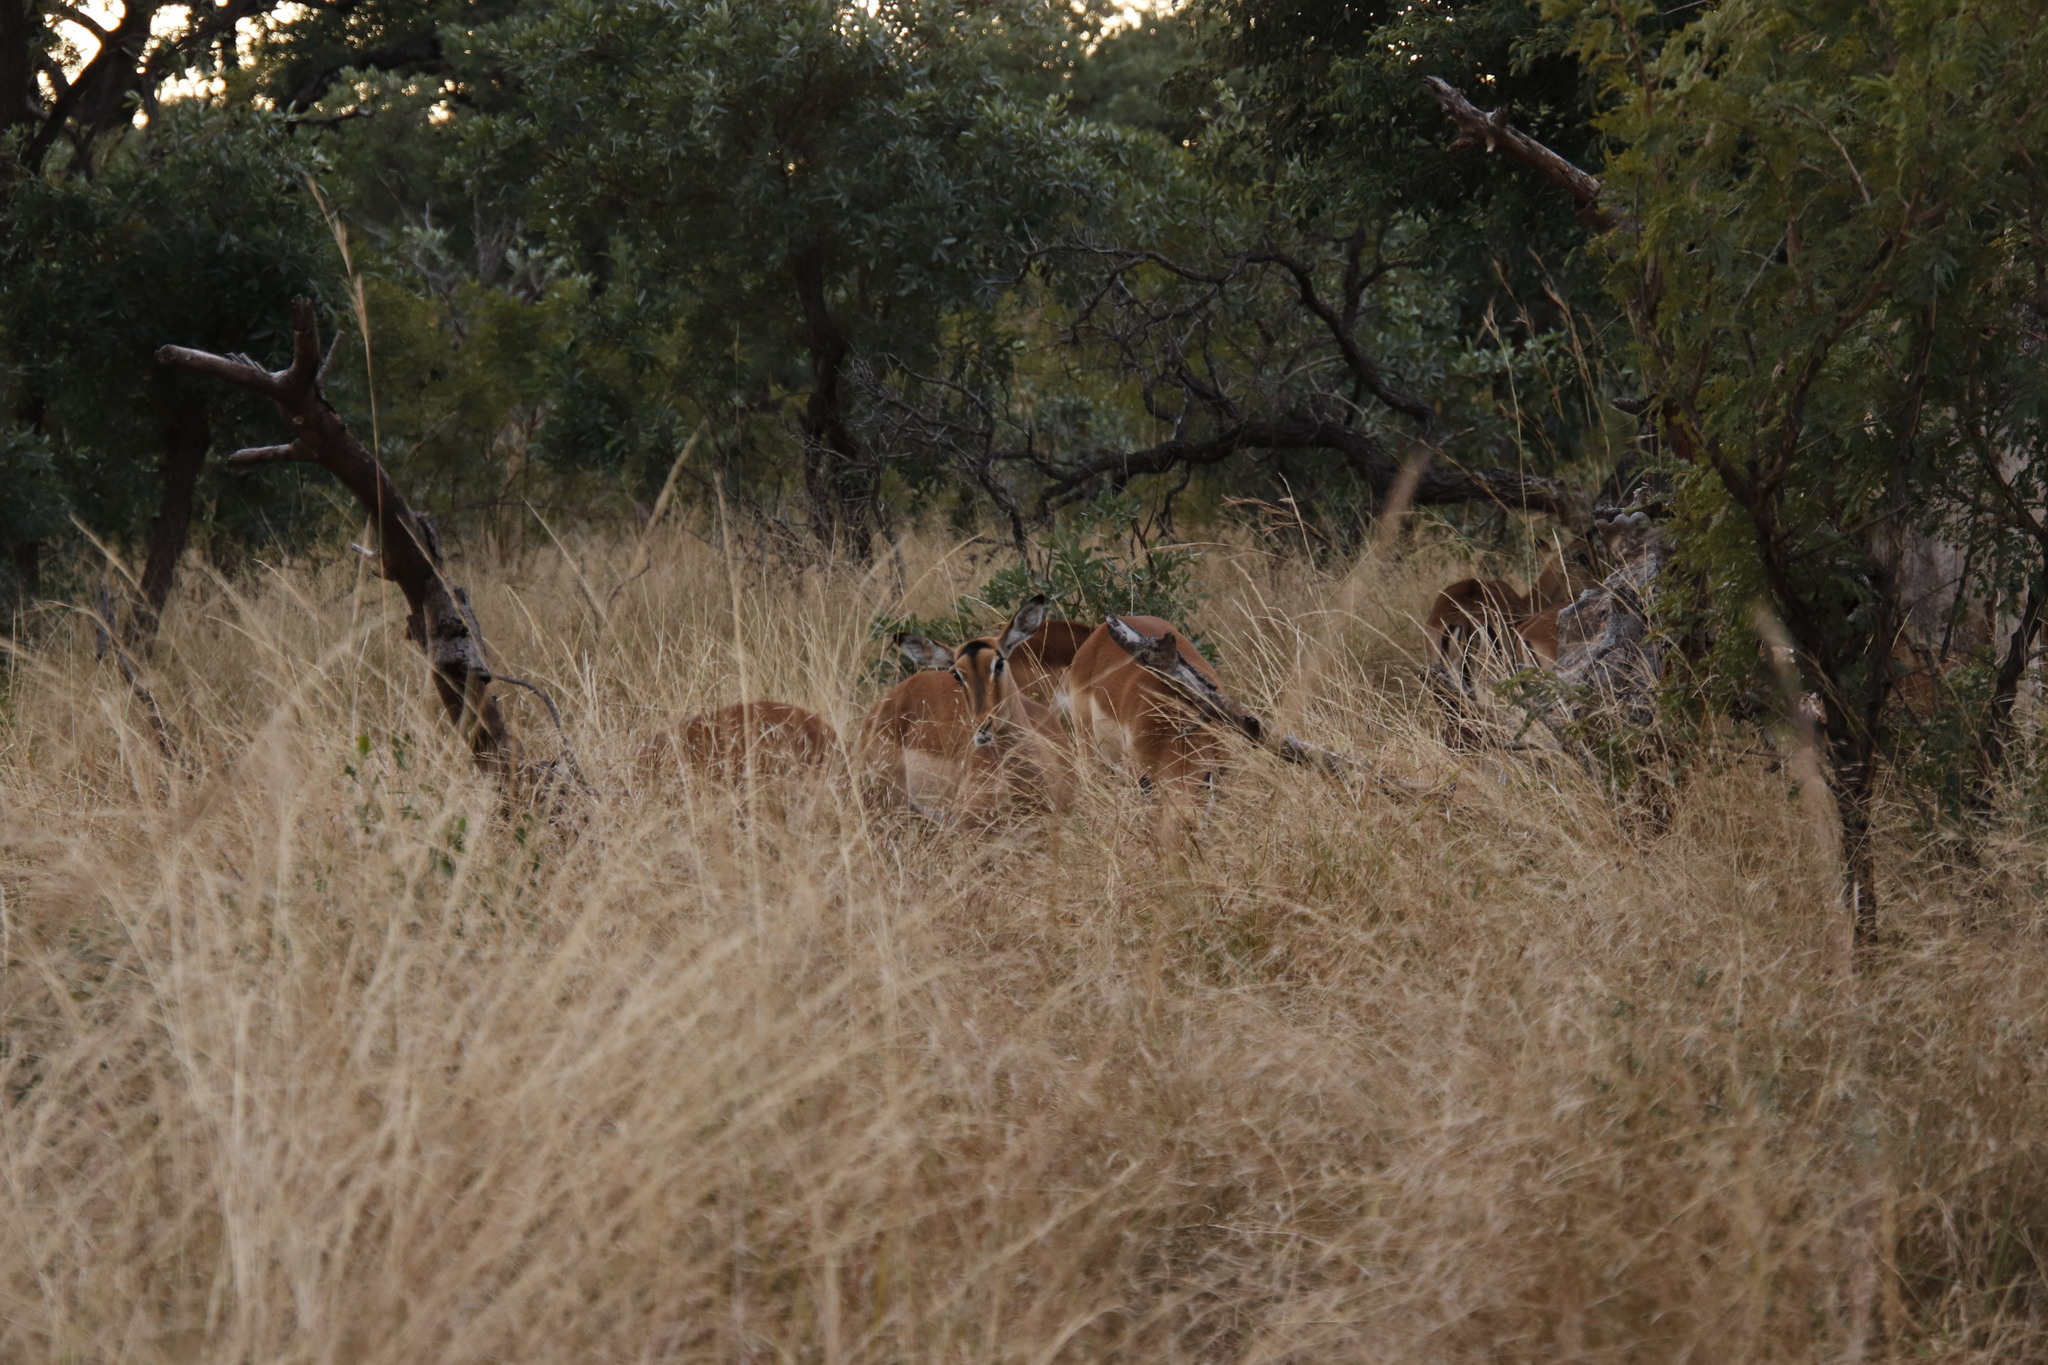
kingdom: Animalia
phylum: Chordata
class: Mammalia
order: Artiodactyla
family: Bovidae
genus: Aepyceros
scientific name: Aepyceros melampus
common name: Impala
